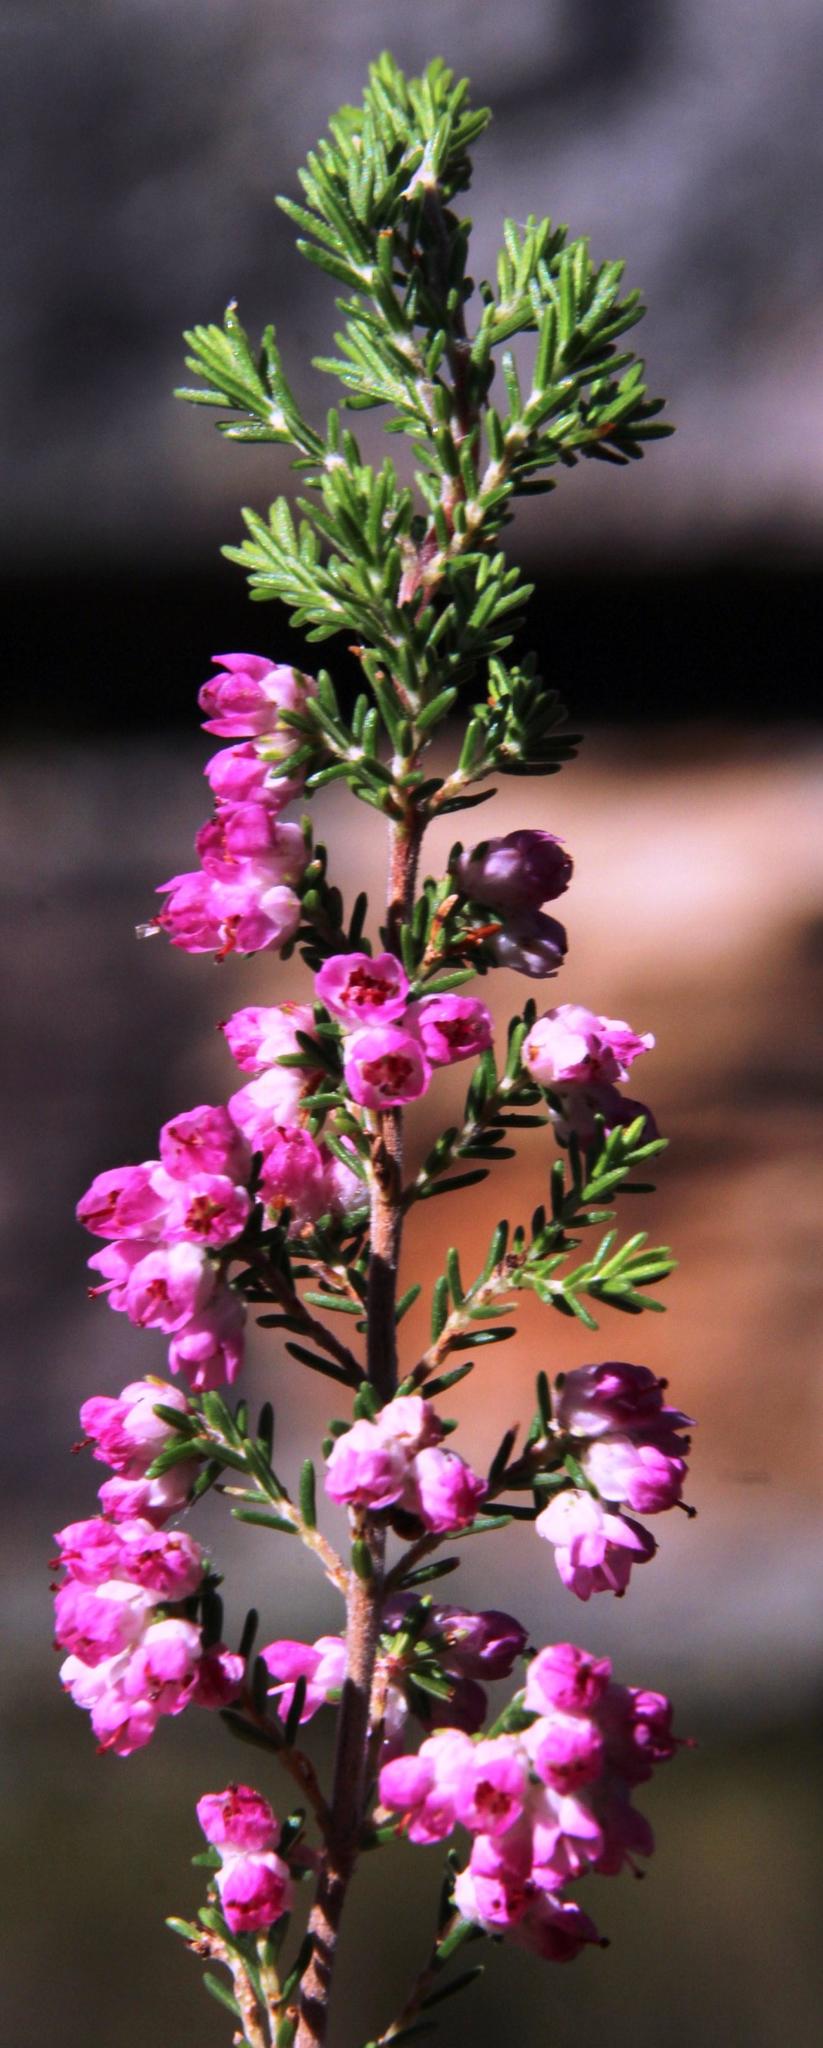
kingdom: Plantae
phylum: Tracheophyta
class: Magnoliopsida
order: Ericales
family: Ericaceae
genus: Erica
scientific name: Erica cristiflora
